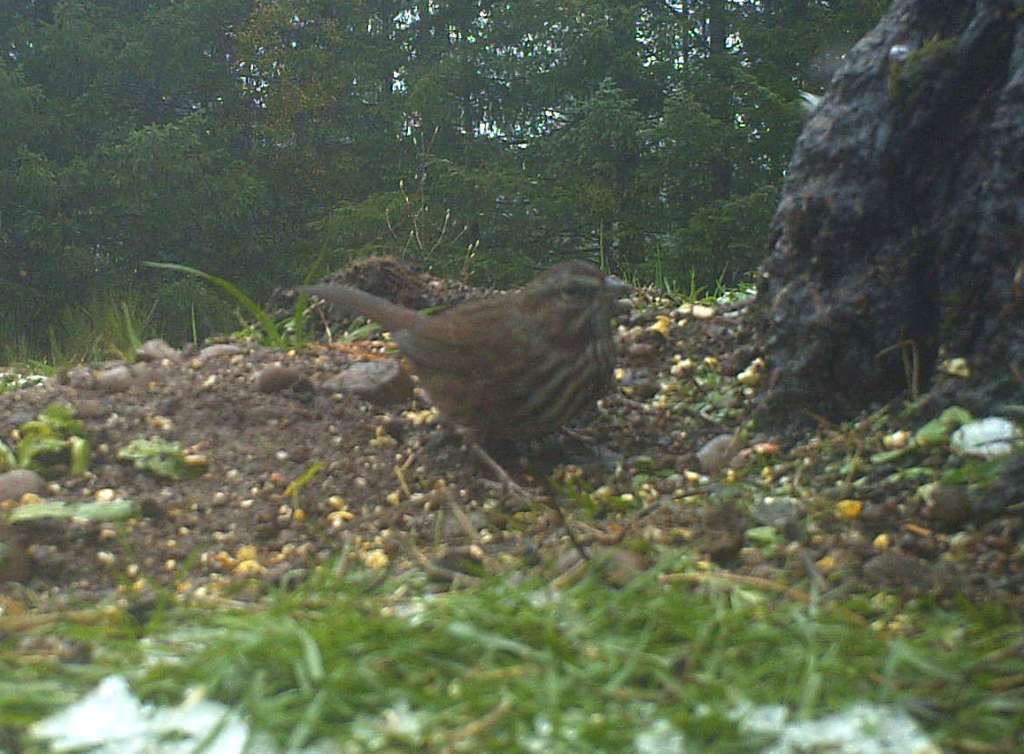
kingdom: Animalia
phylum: Chordata
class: Aves
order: Passeriformes
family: Passerellidae
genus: Melospiza
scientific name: Melospiza melodia
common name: Song sparrow
